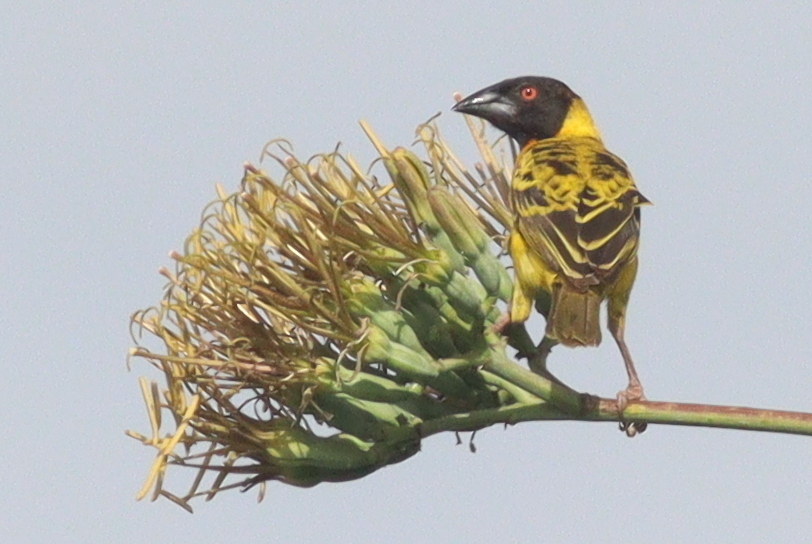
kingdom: Animalia
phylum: Chordata
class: Aves
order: Passeriformes
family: Ploceidae
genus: Ploceus
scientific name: Ploceus cucullatus
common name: Village weaver
